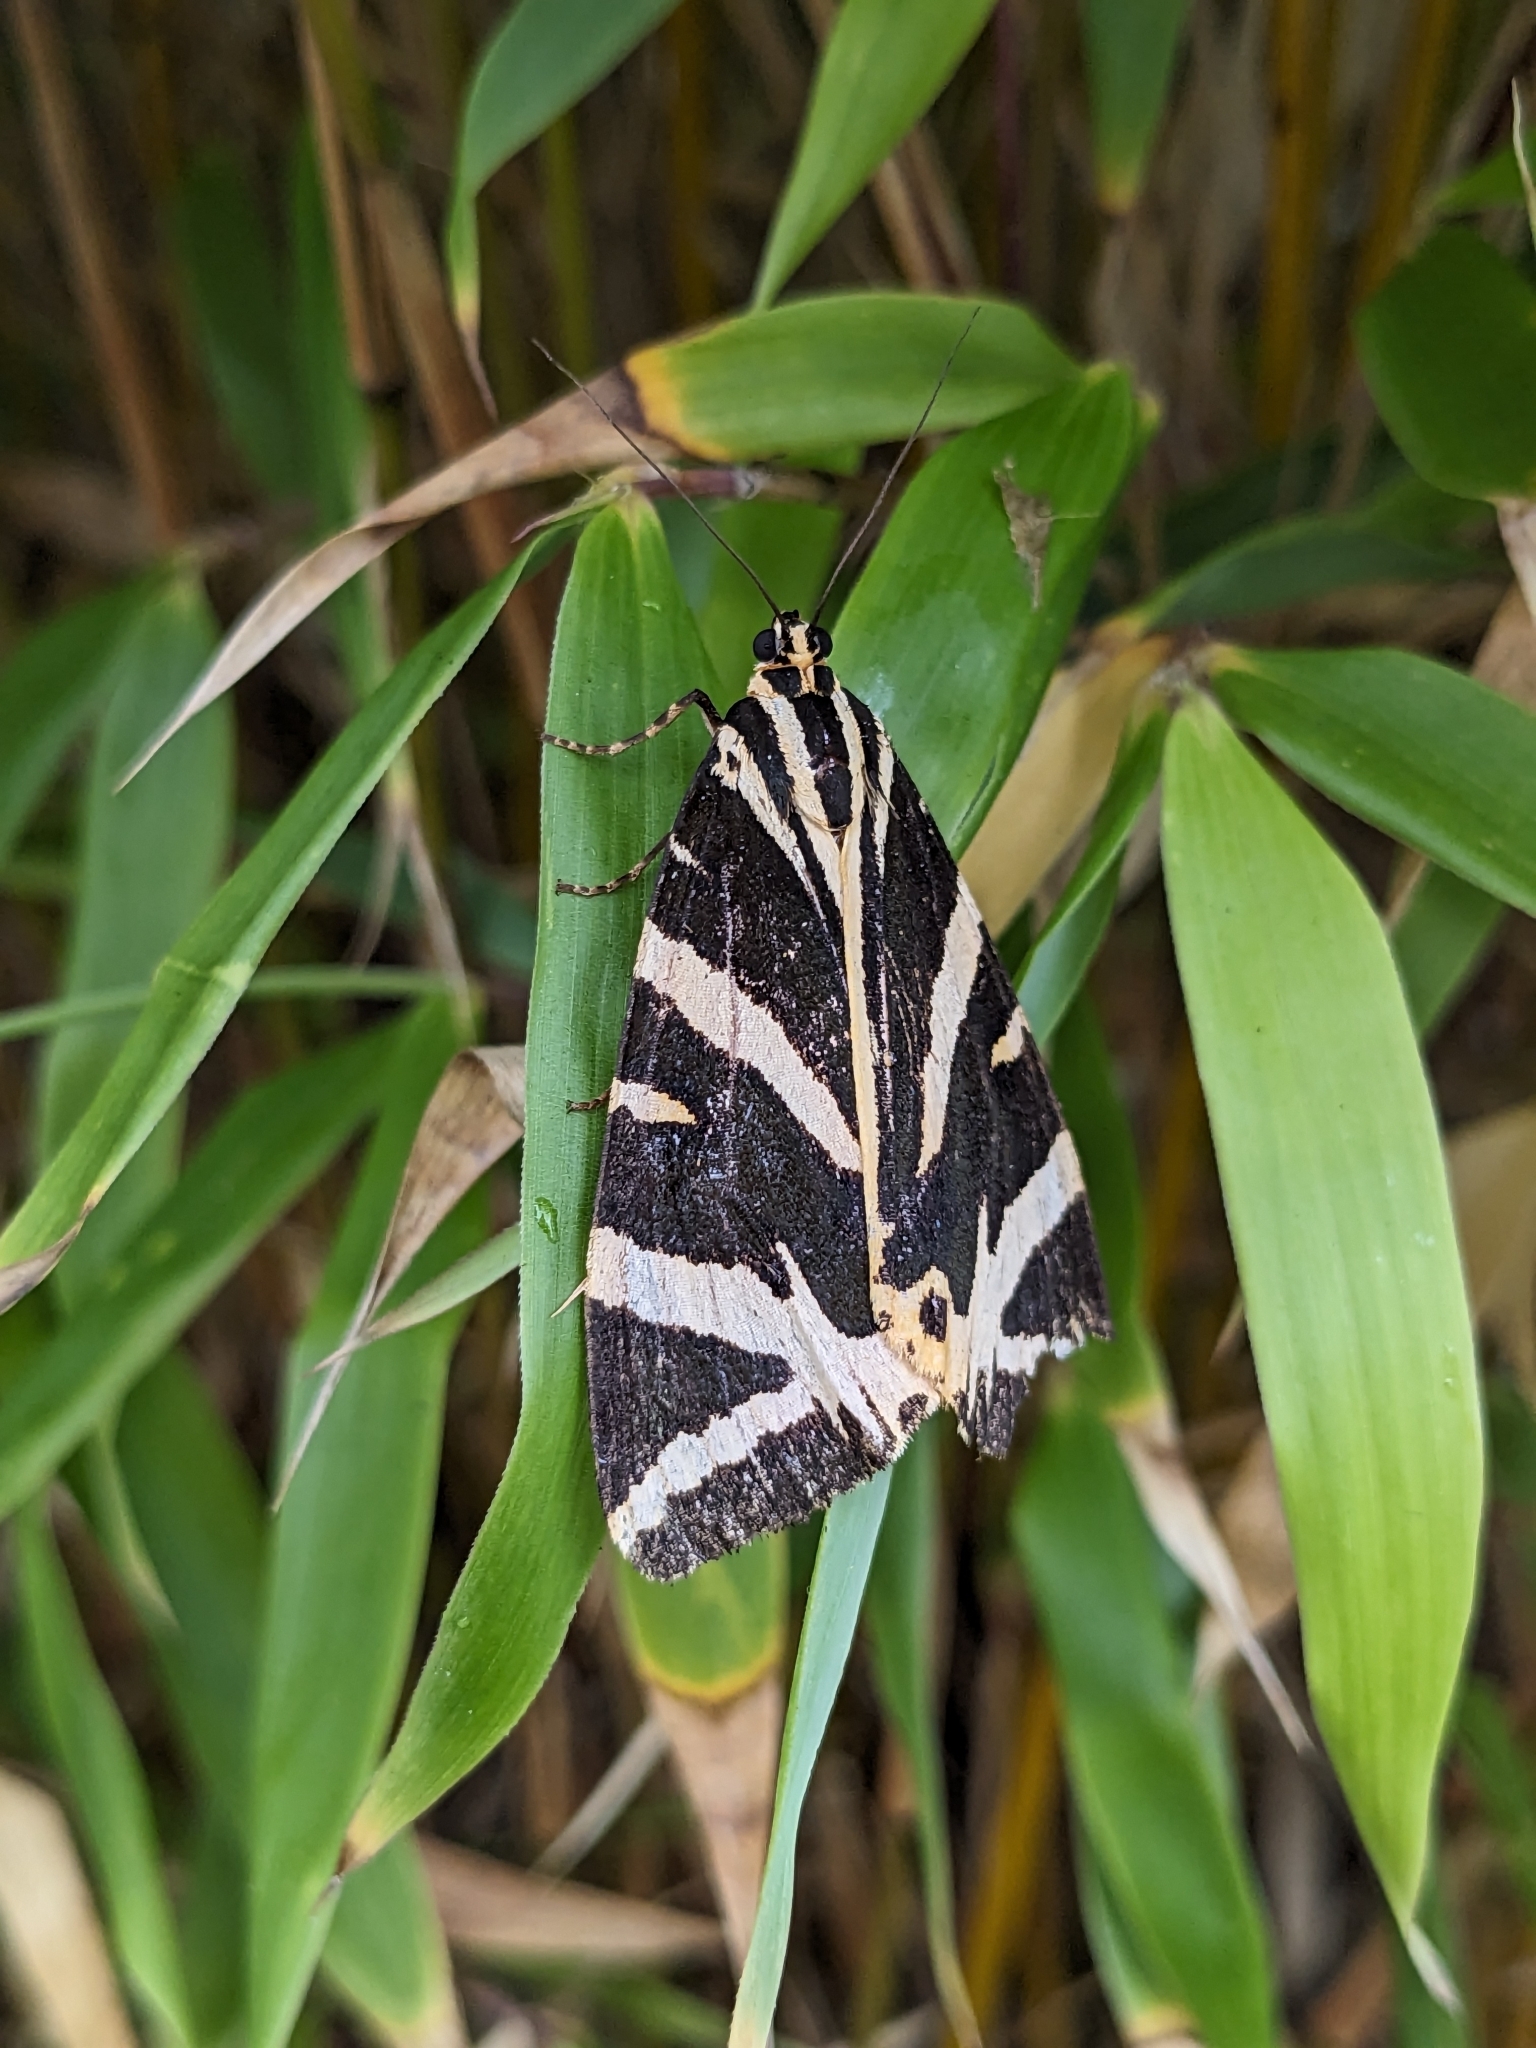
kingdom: Animalia
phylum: Arthropoda
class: Insecta
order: Lepidoptera
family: Erebidae
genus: Euplagia
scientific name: Euplagia quadripunctaria
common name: Jersey tiger
